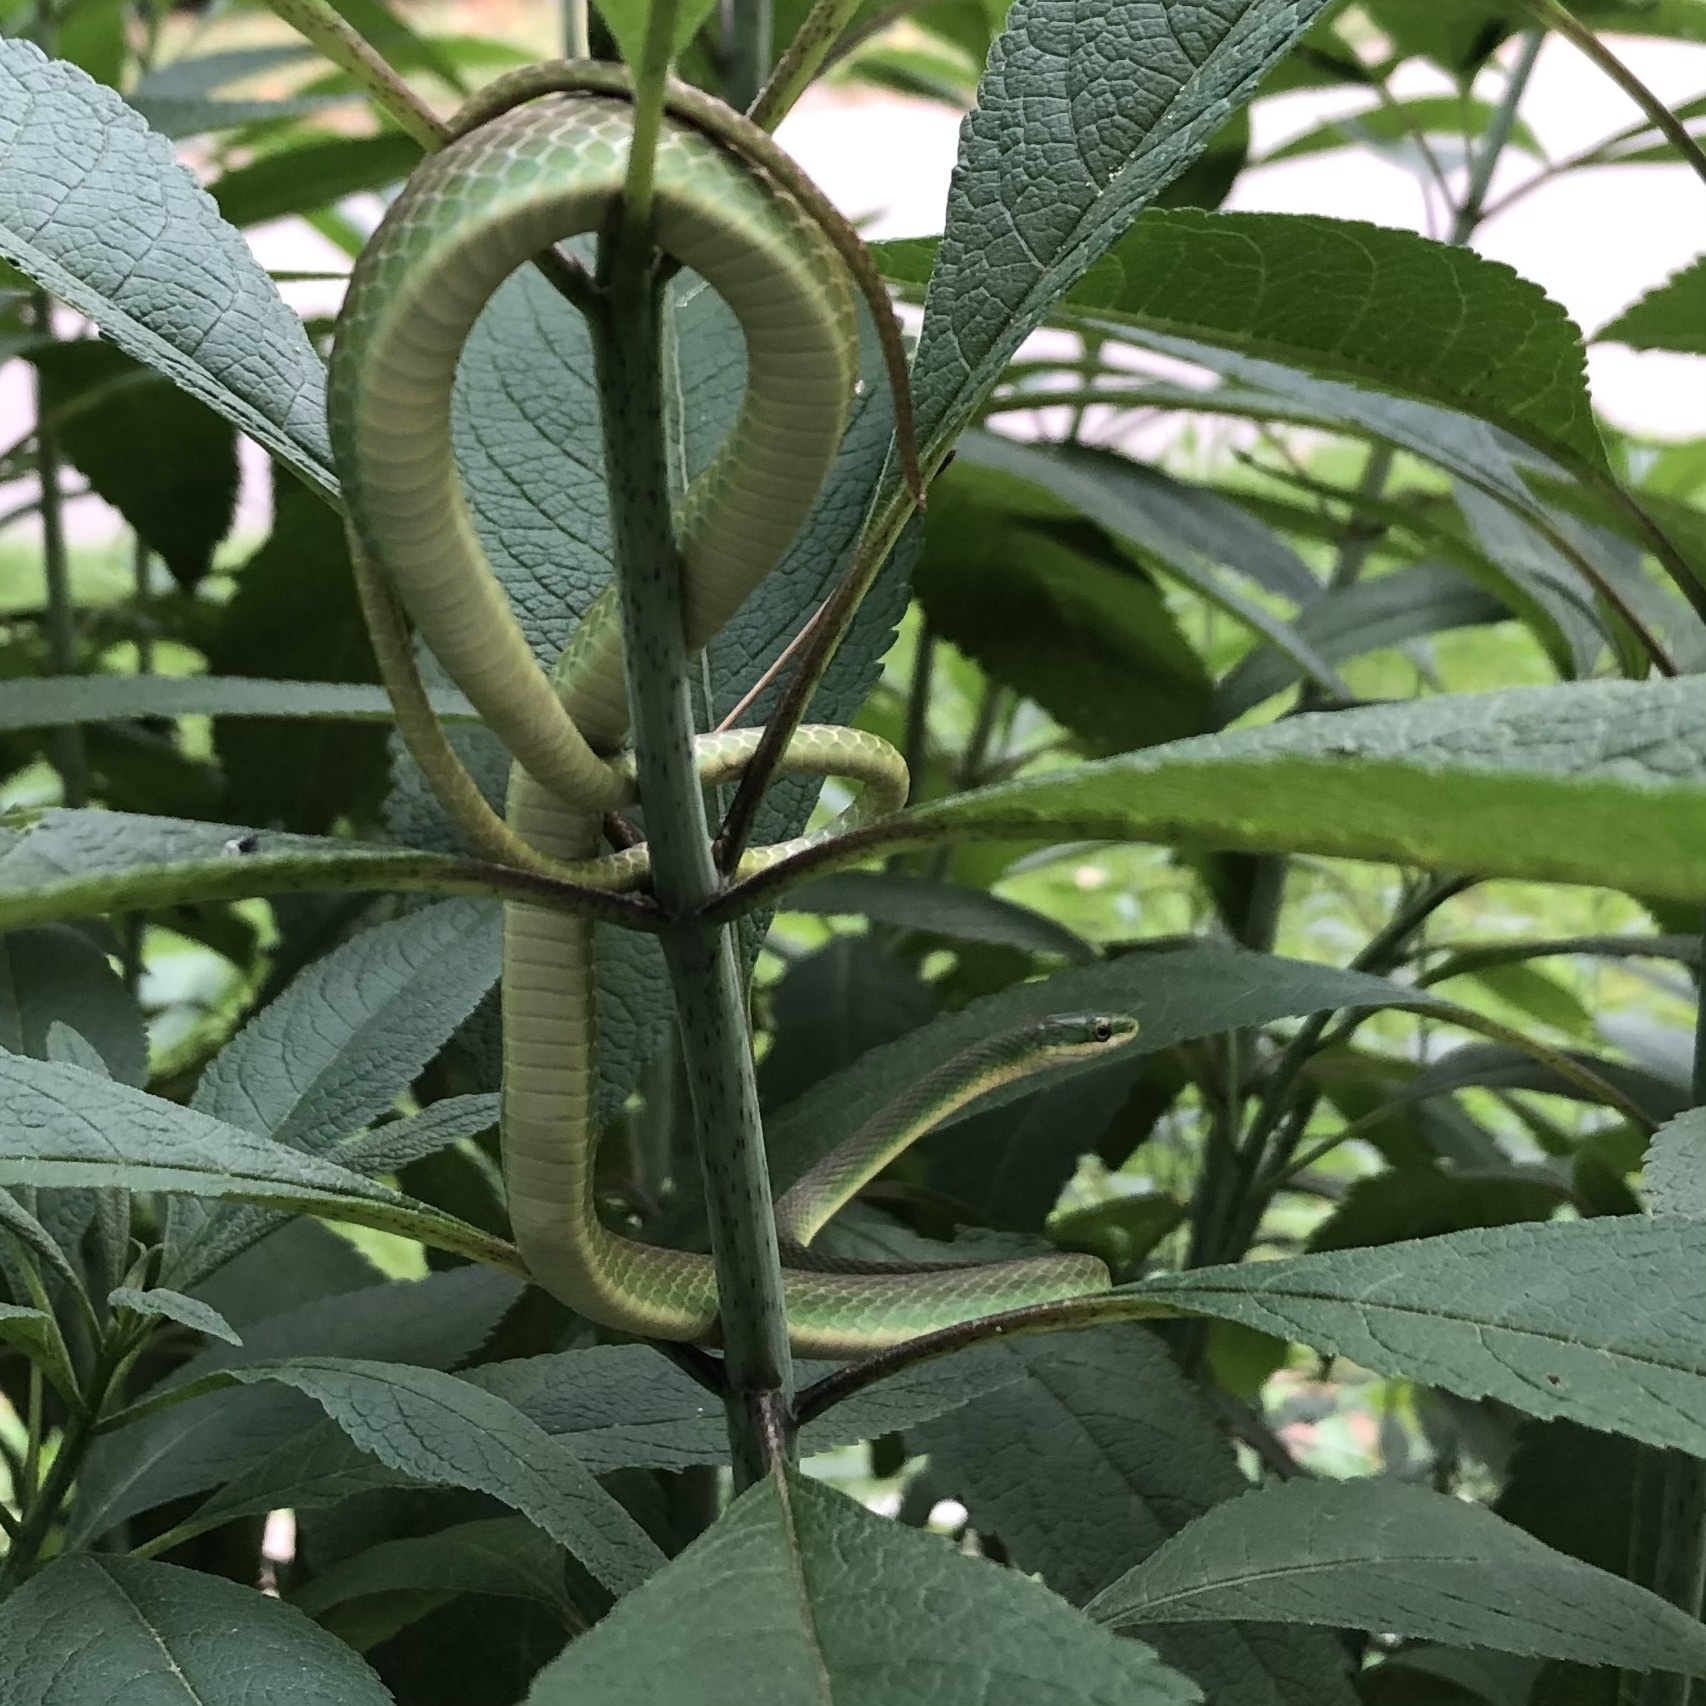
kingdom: Animalia
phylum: Chordata
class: Squamata
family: Colubridae
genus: Opheodrys
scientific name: Opheodrys aestivus
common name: Rough greensnake
